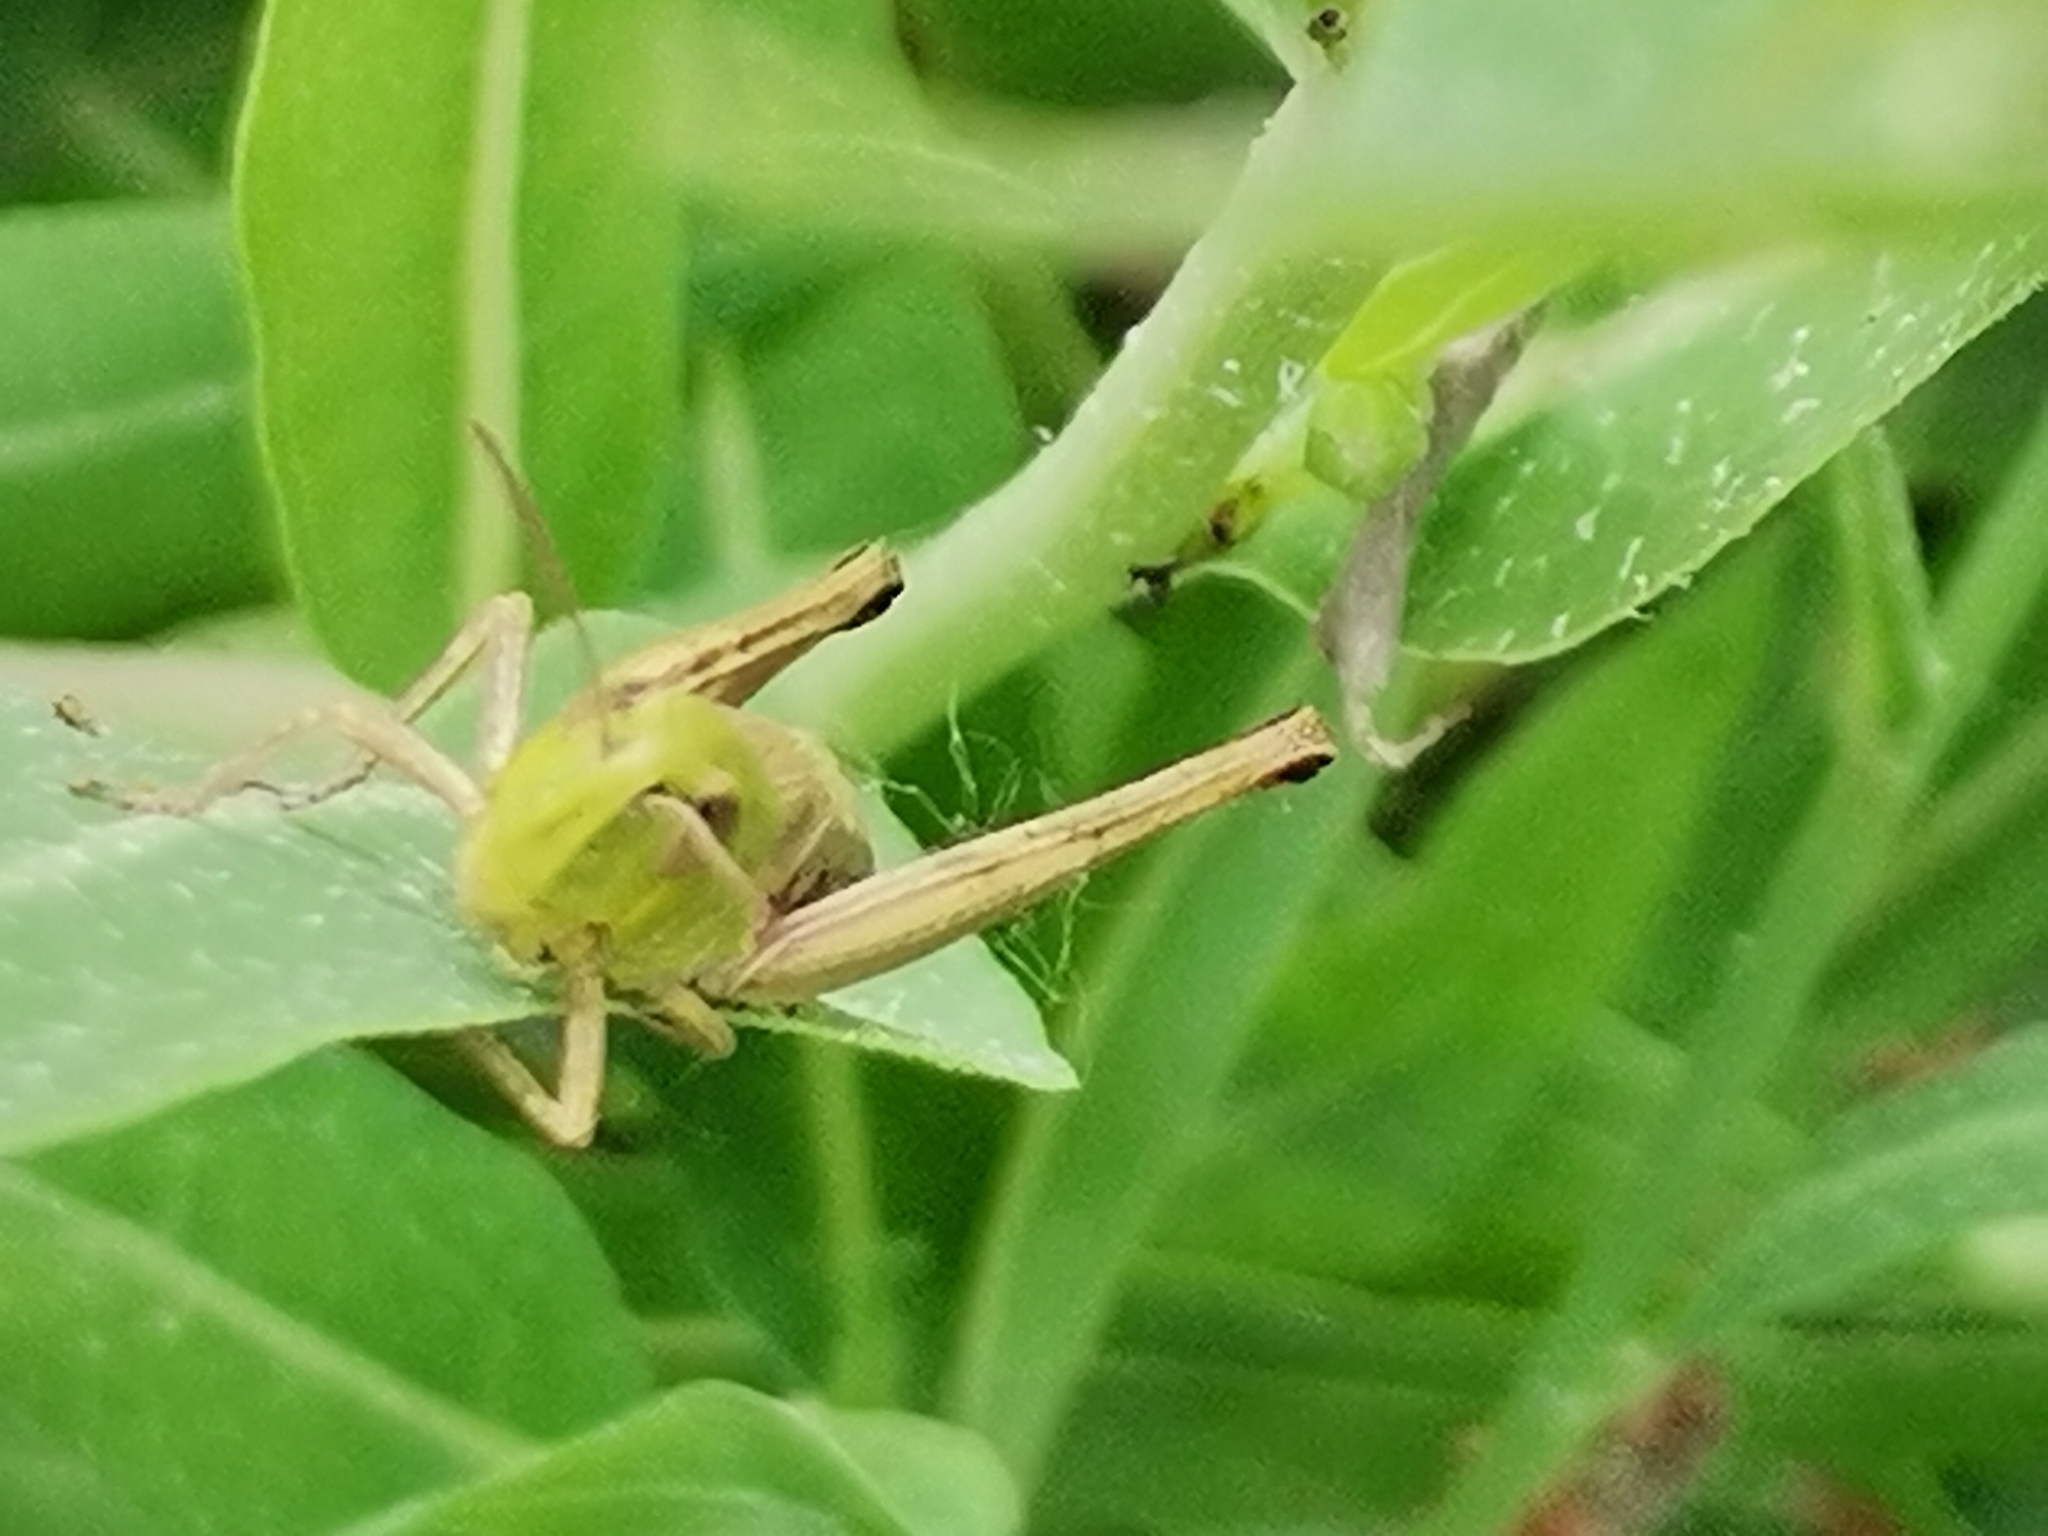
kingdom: Animalia
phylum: Arthropoda
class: Insecta
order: Orthoptera
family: Acrididae
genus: Pseudochorthippus
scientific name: Pseudochorthippus parallelus
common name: Meadow grasshopper
